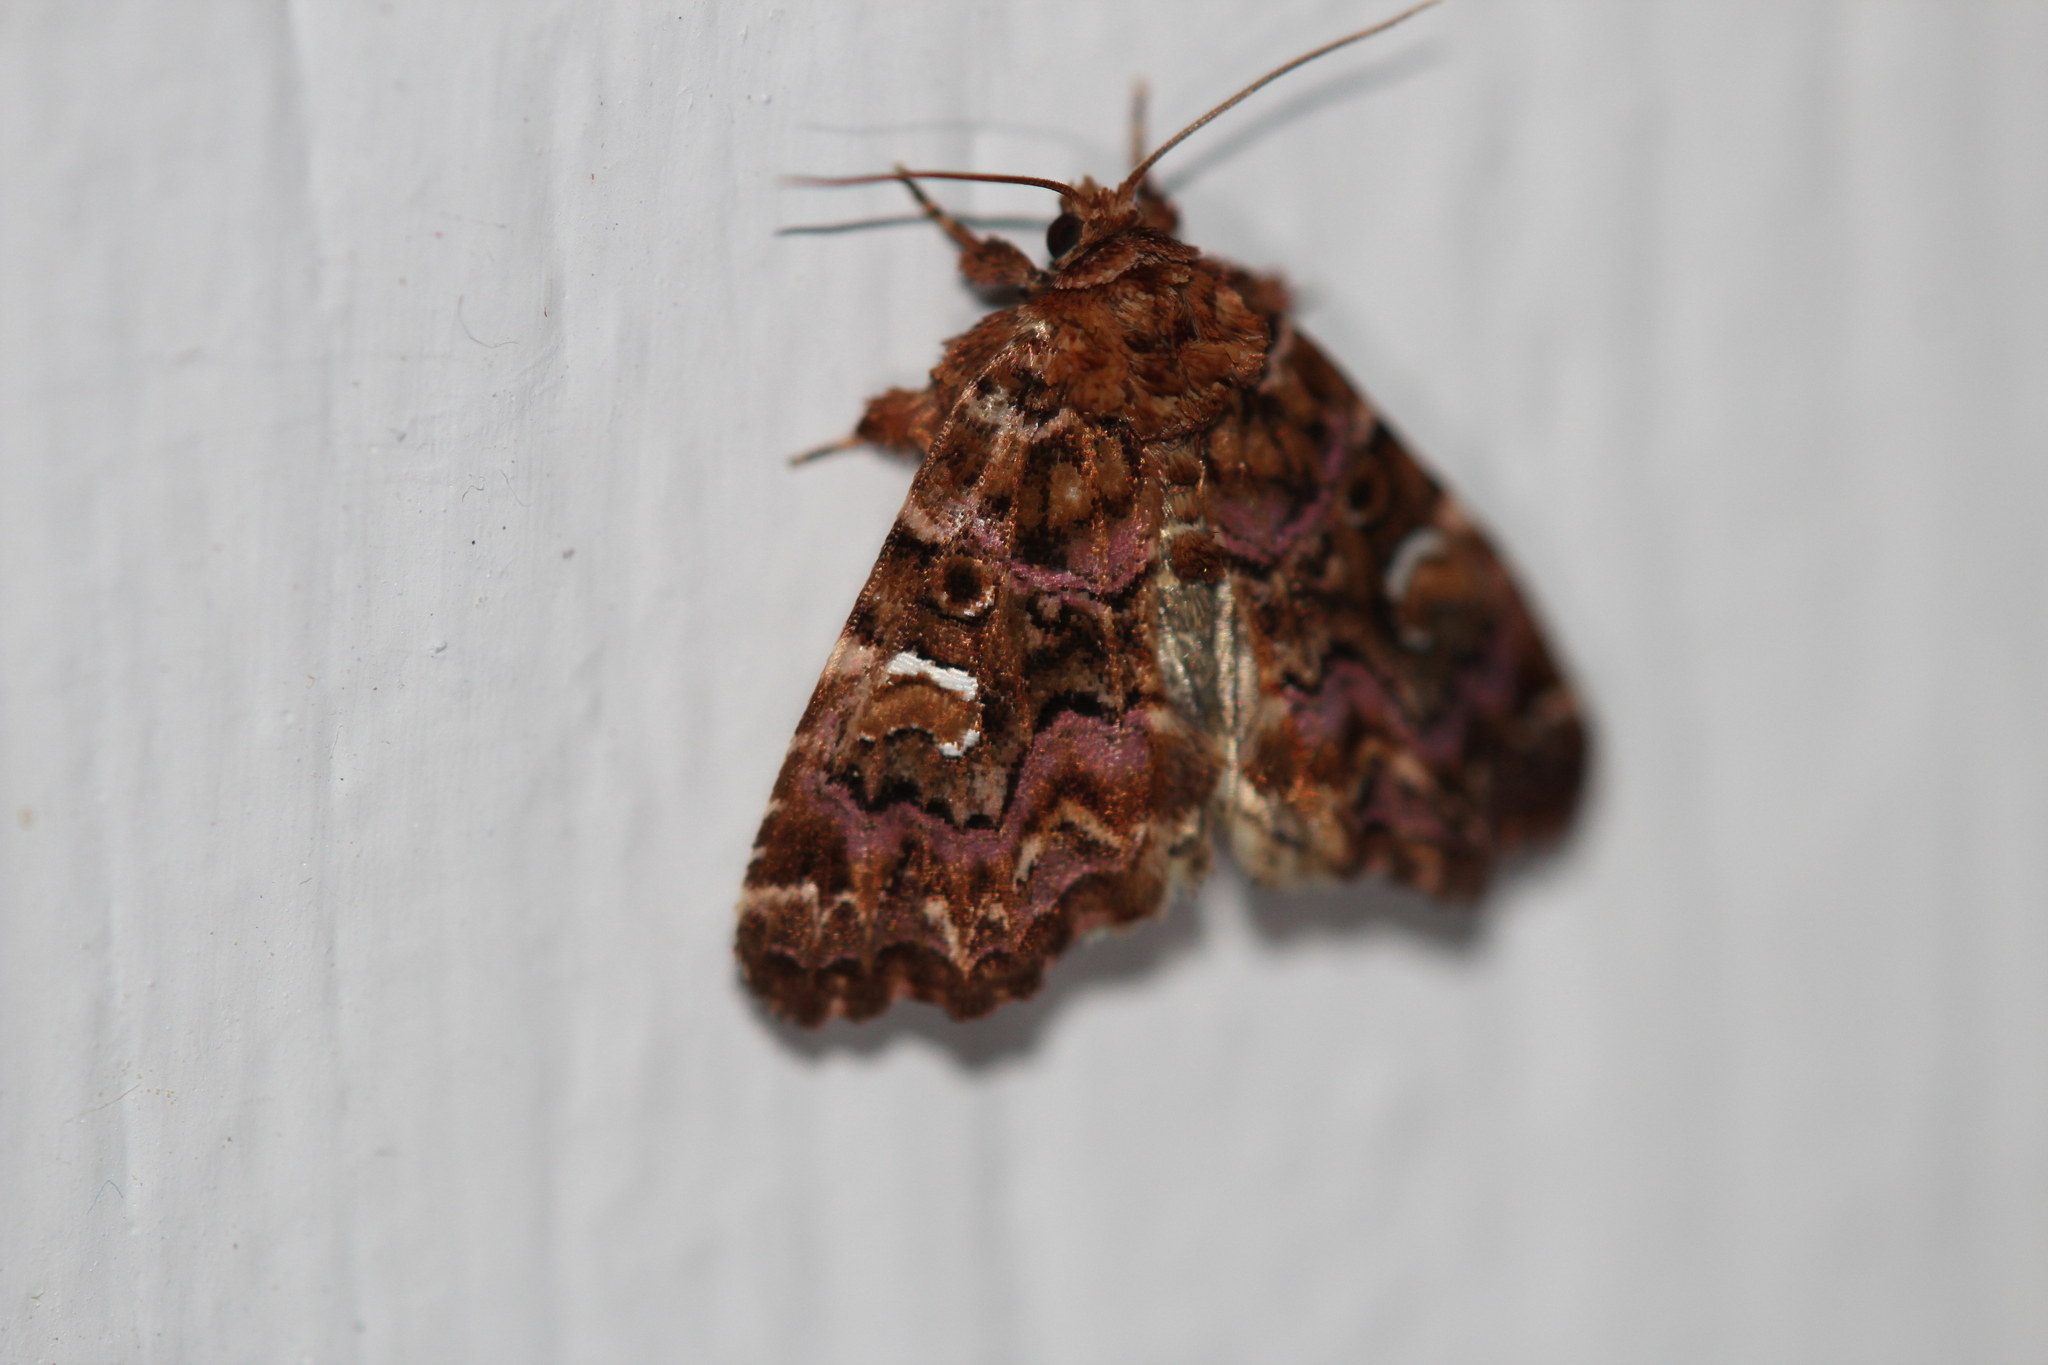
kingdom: Animalia
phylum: Arthropoda
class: Insecta
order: Lepidoptera
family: Noctuidae
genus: Callopistria
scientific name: Callopistria mollissima
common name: Pink-shaded fern moth
